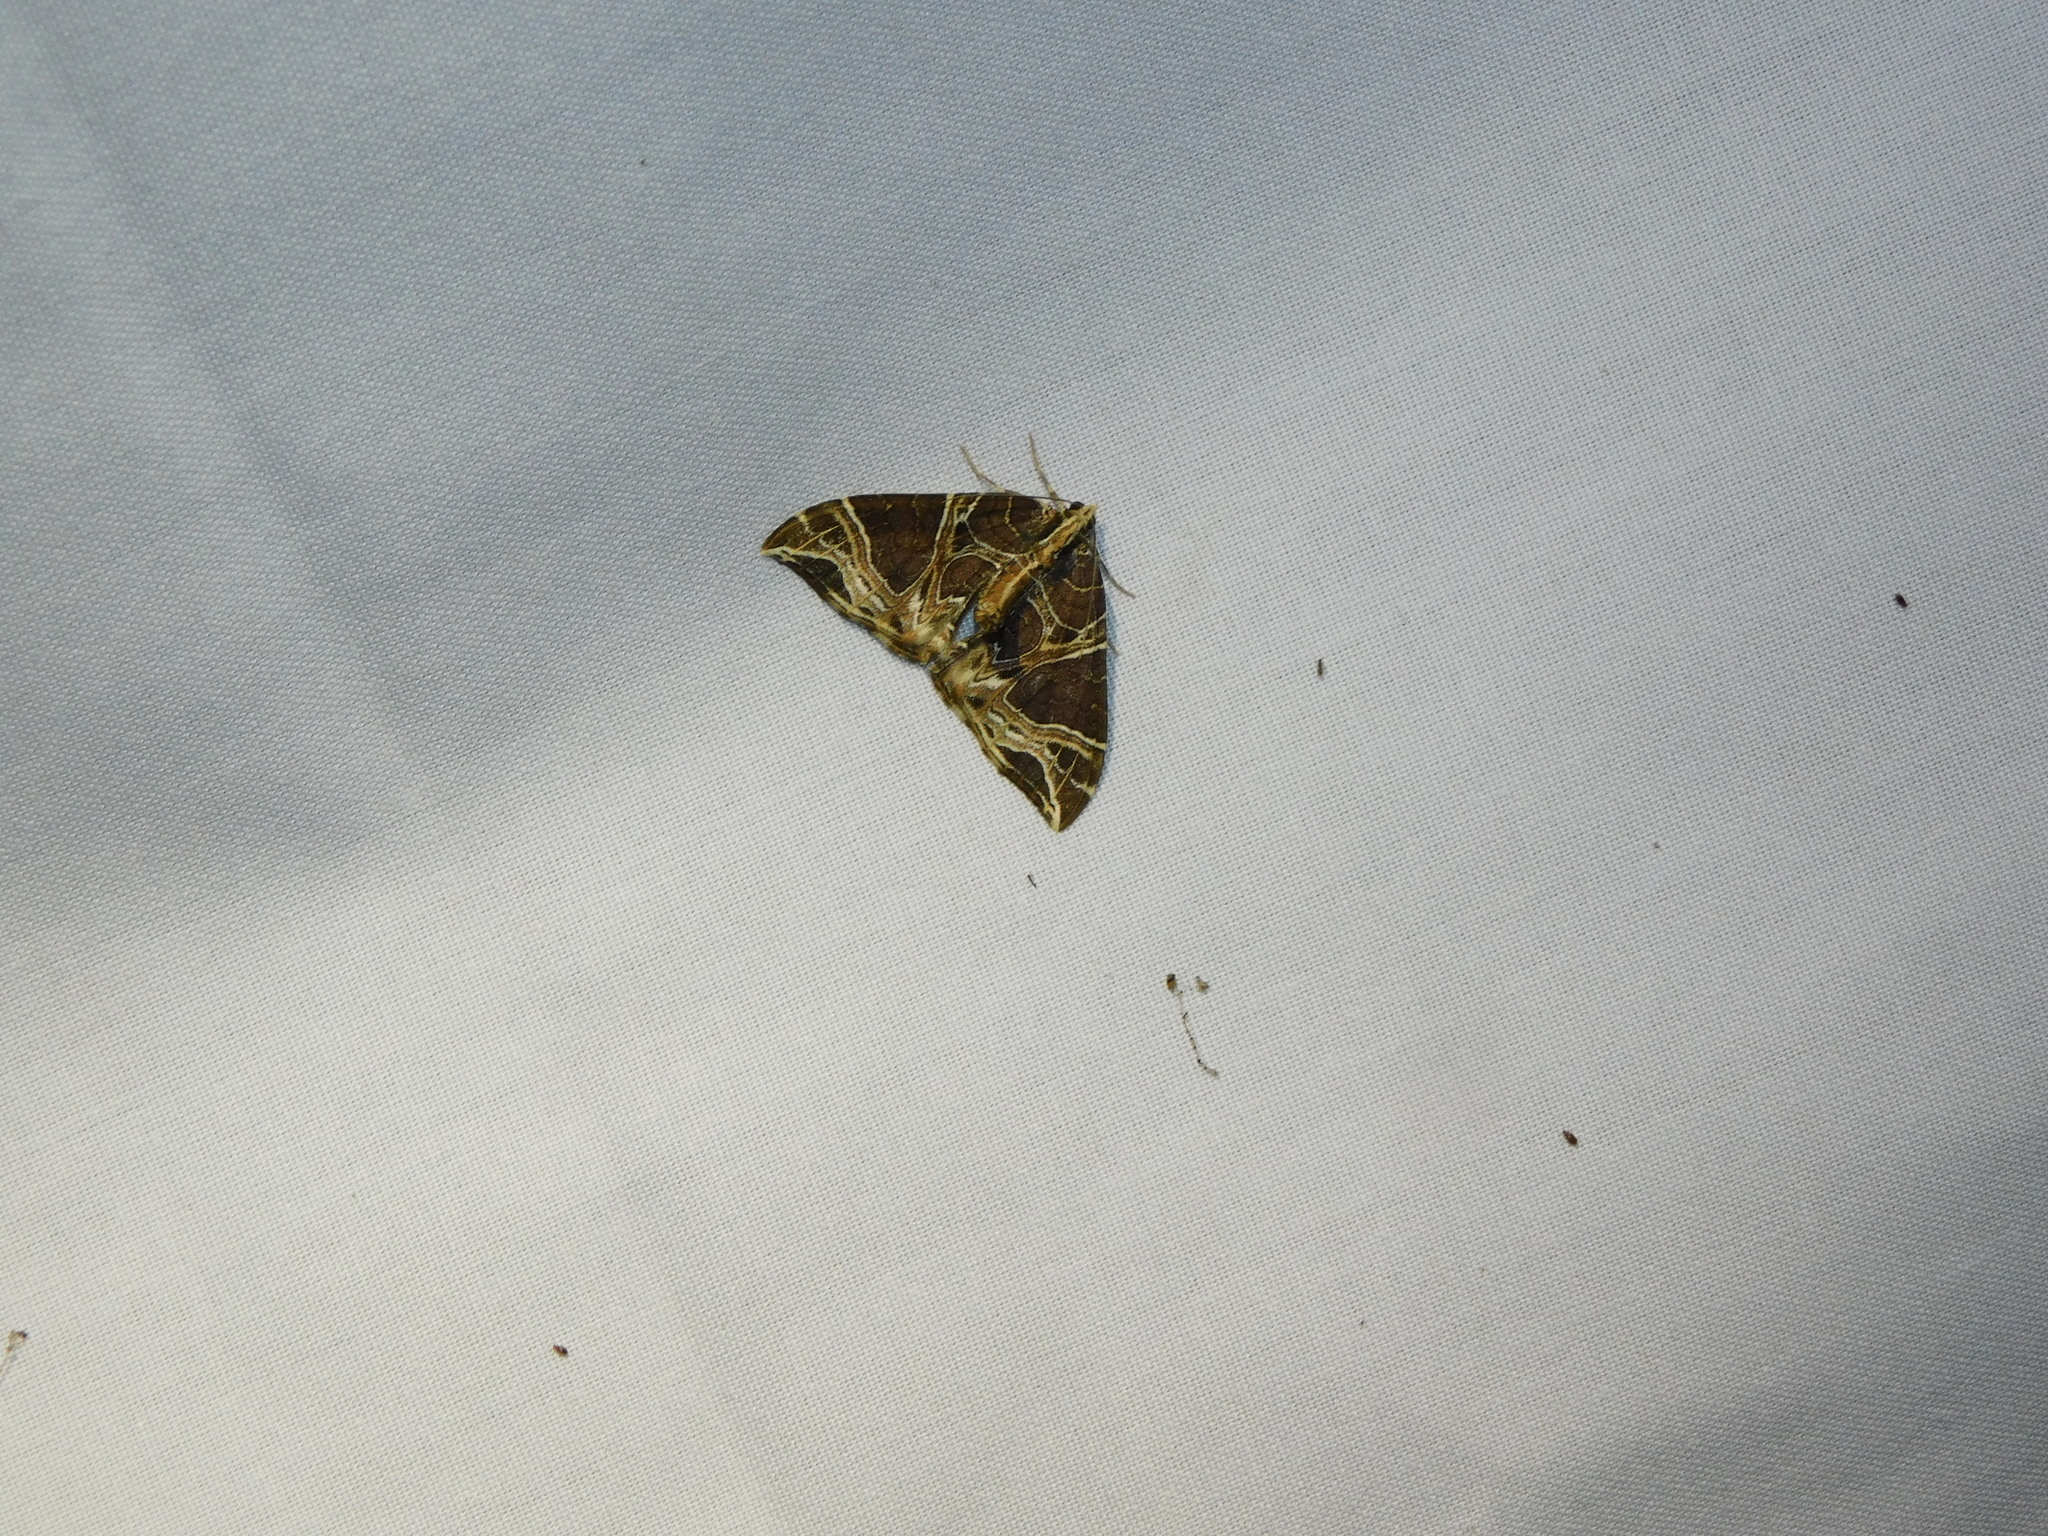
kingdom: Animalia
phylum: Arthropoda
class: Insecta
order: Lepidoptera
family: Geometridae
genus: Ecliptopera
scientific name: Ecliptopera dissecta
